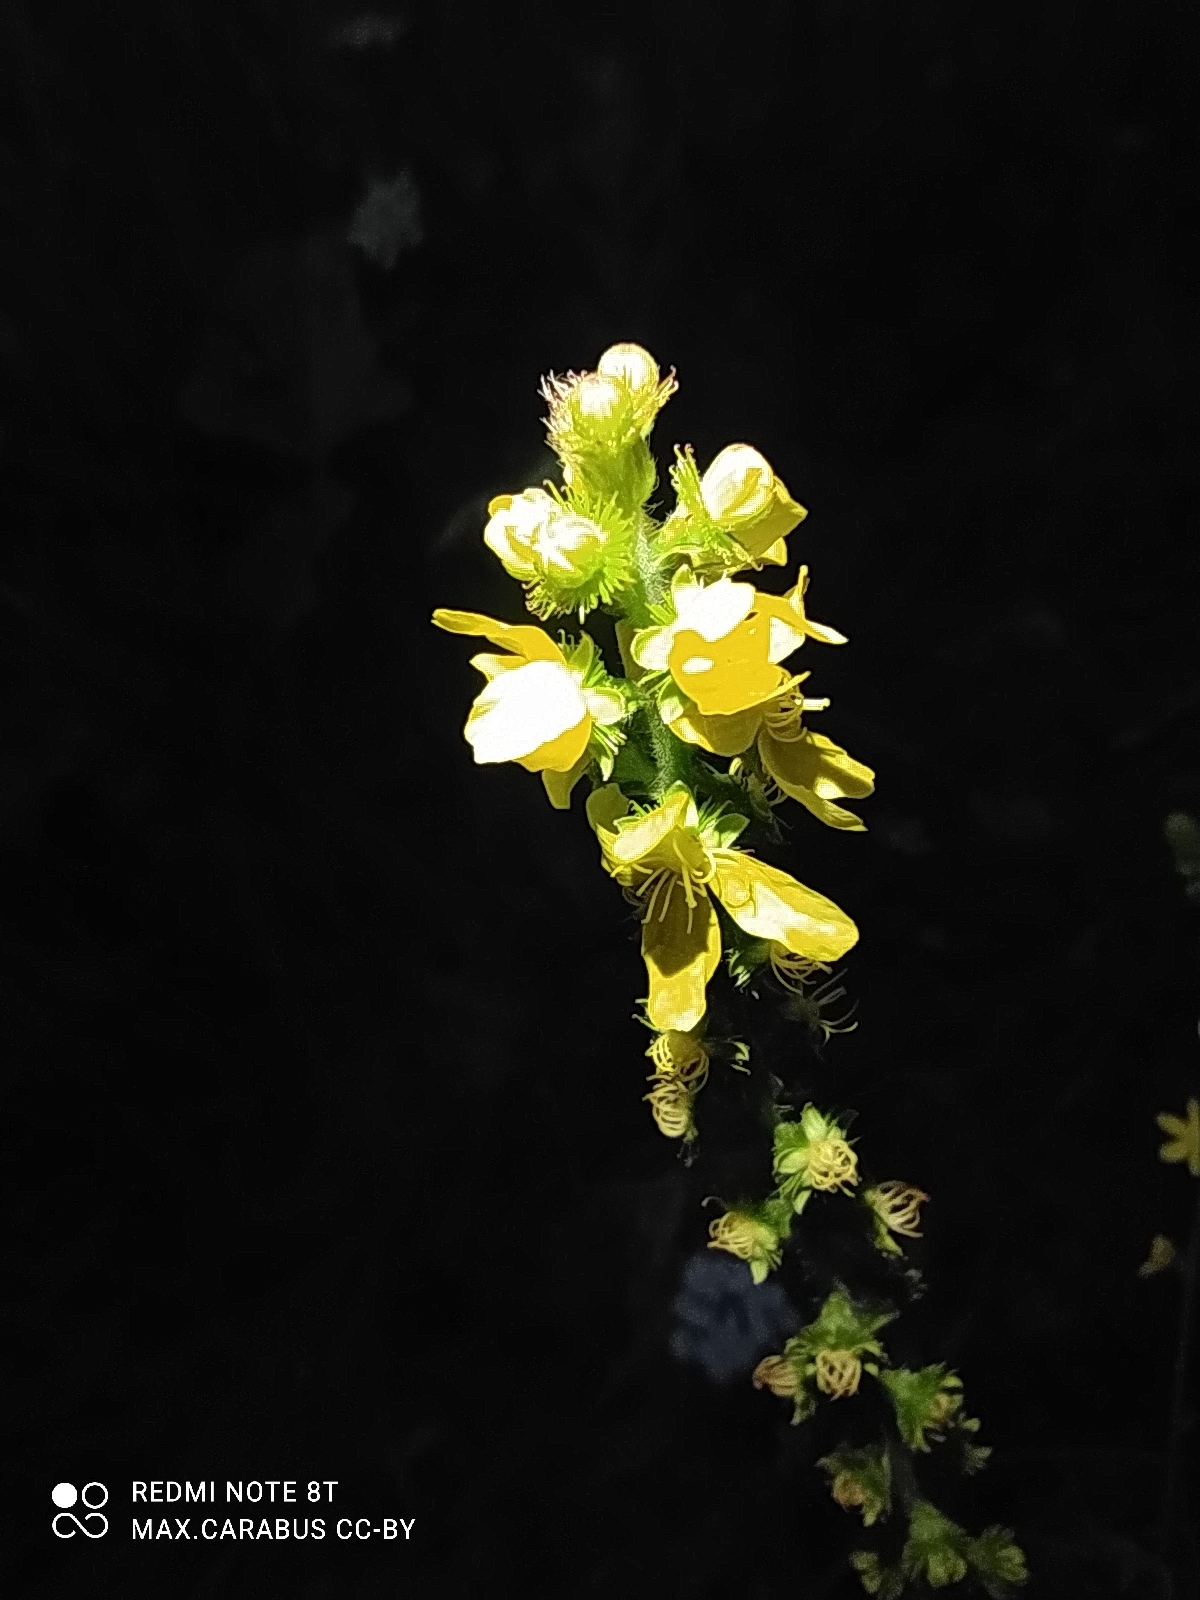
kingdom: Plantae
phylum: Tracheophyta
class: Magnoliopsida
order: Rosales
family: Rosaceae
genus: Agrimonia
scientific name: Agrimonia eupatoria
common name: Agrimony
